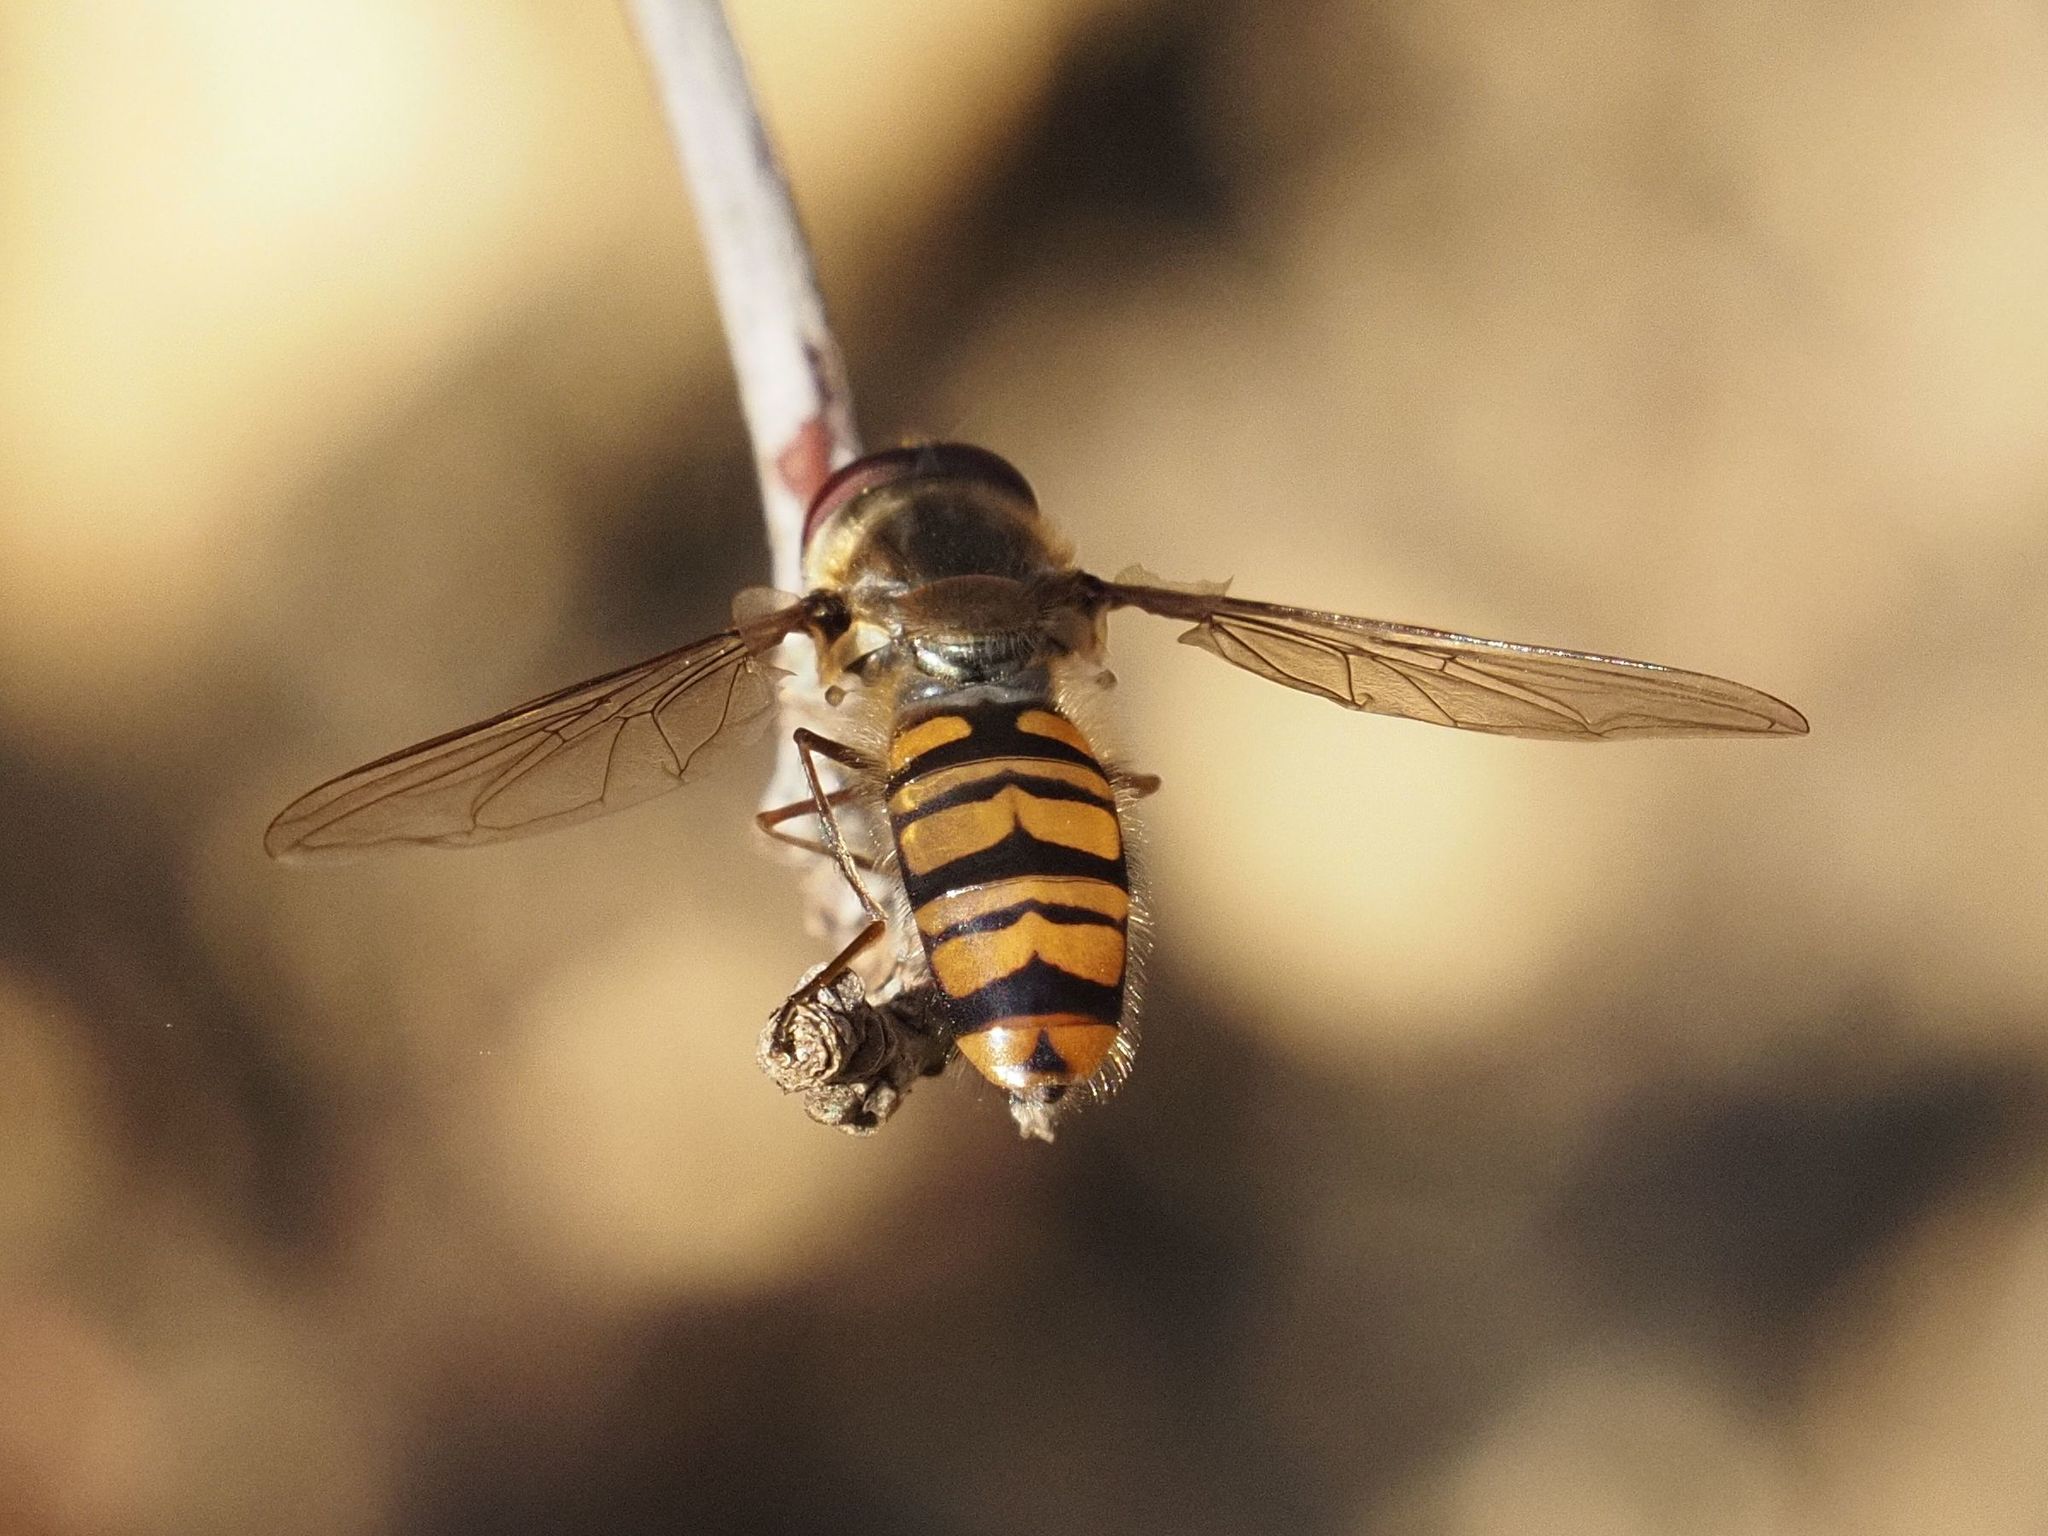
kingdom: Animalia
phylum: Arthropoda
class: Insecta
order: Diptera
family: Syrphidae
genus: Episyrphus
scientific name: Episyrphus balteatus
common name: Marmalade hoverfly
